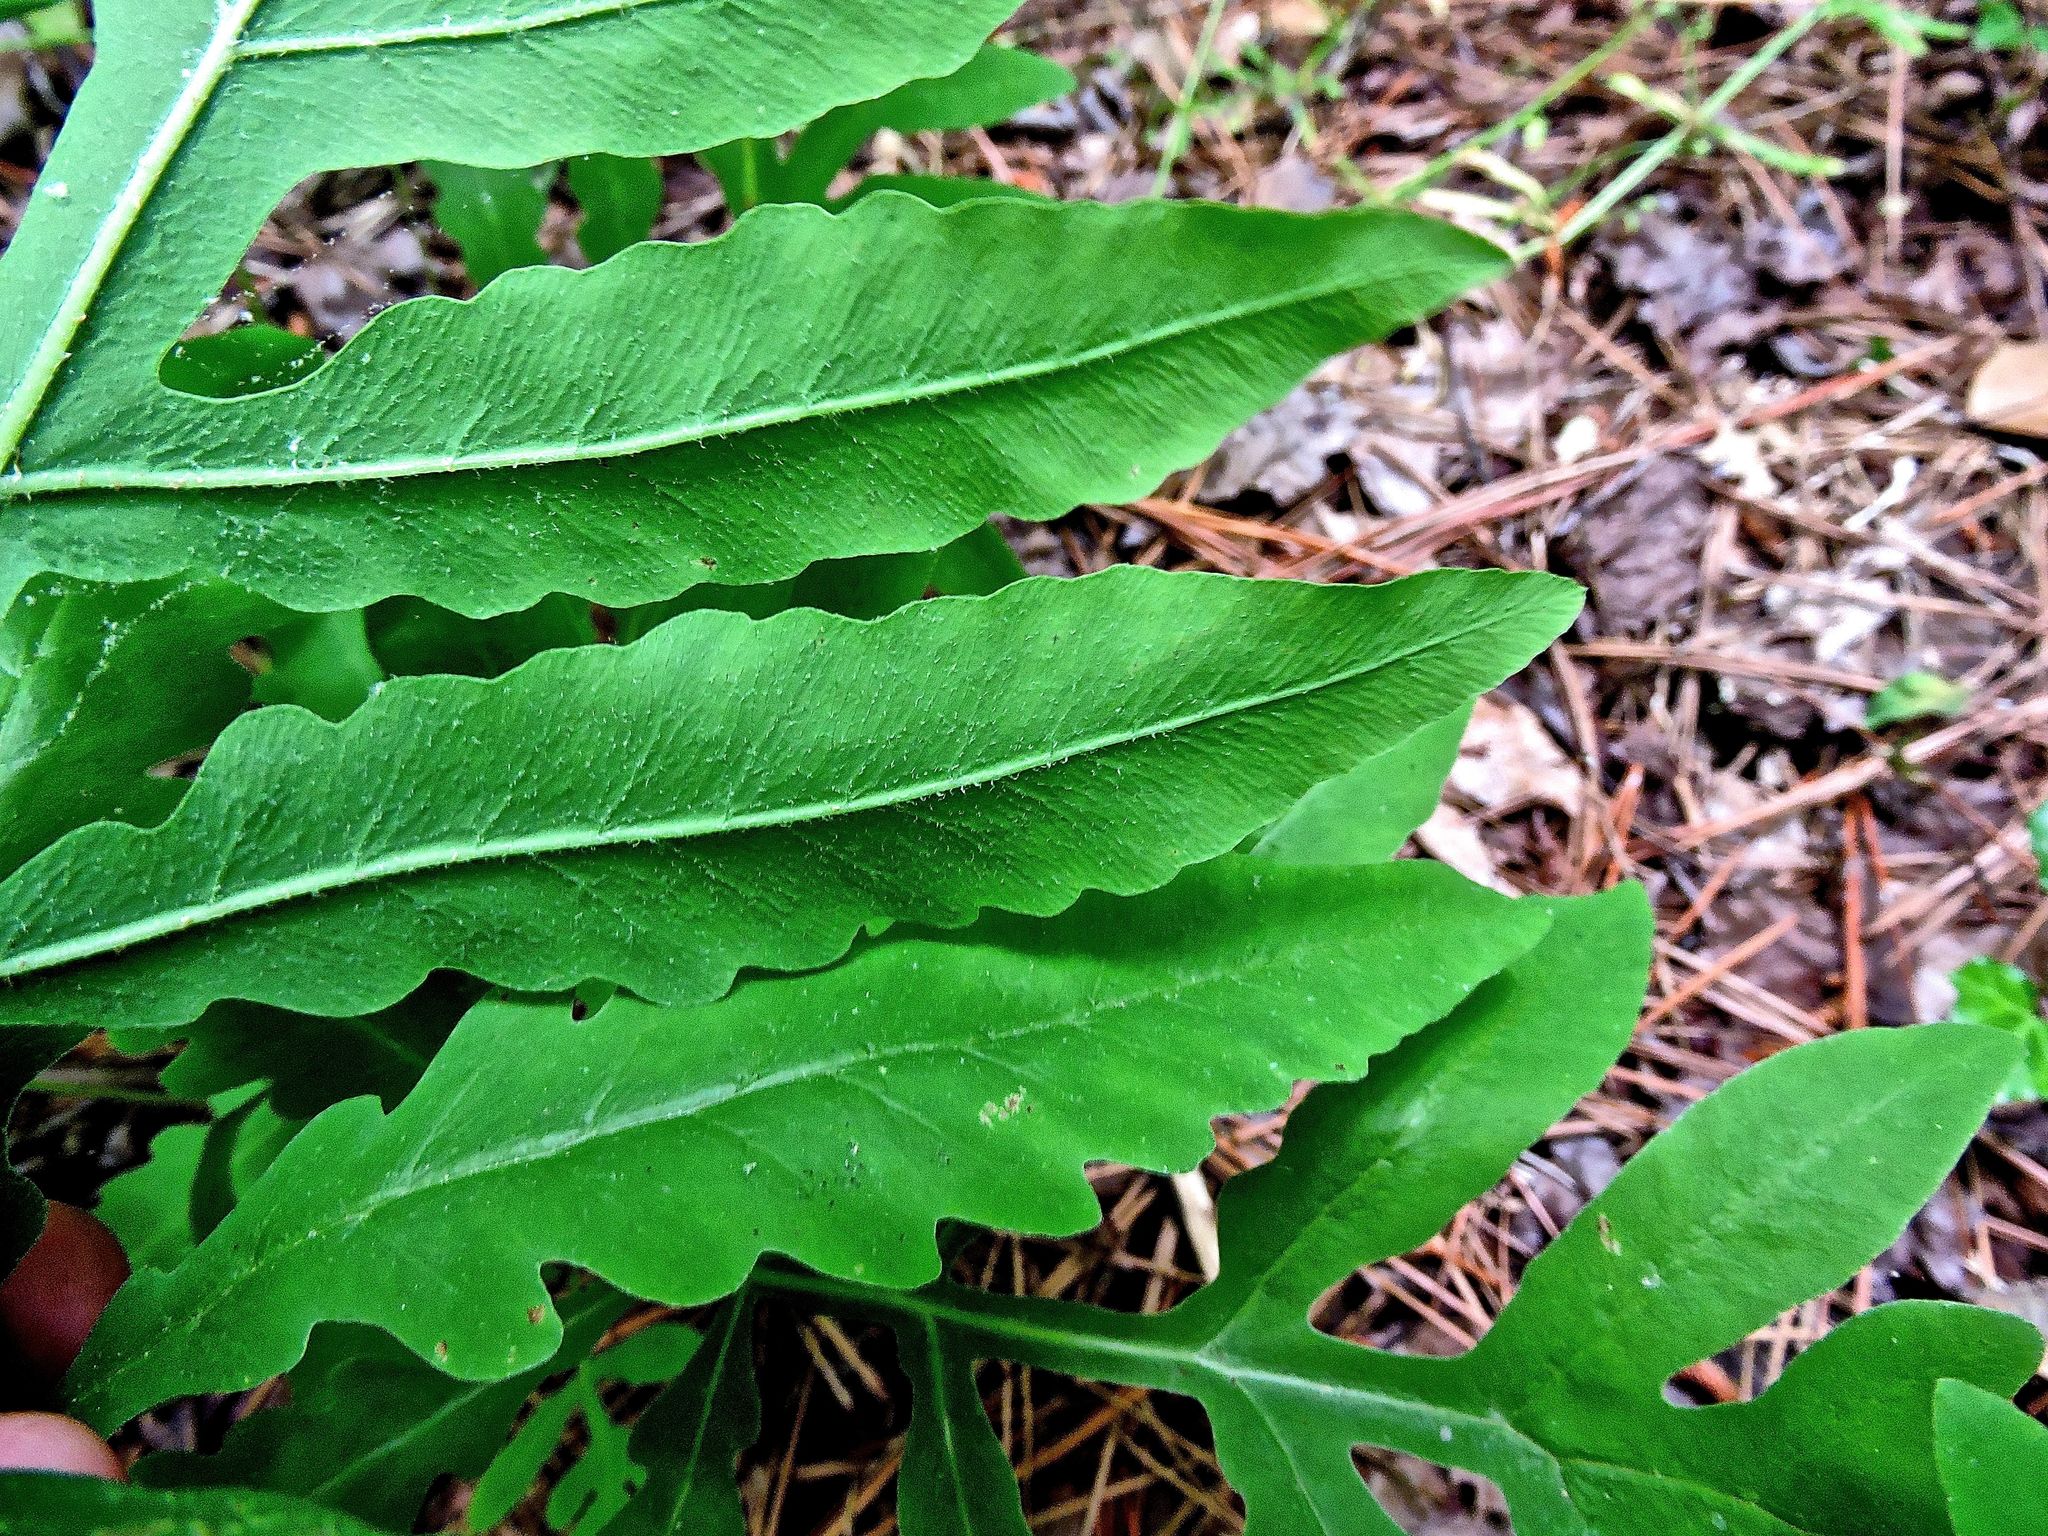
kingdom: Plantae
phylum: Tracheophyta
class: Polypodiopsida
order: Polypodiales
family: Onocleaceae
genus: Onoclea
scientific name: Onoclea sensibilis
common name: Sensitive fern
